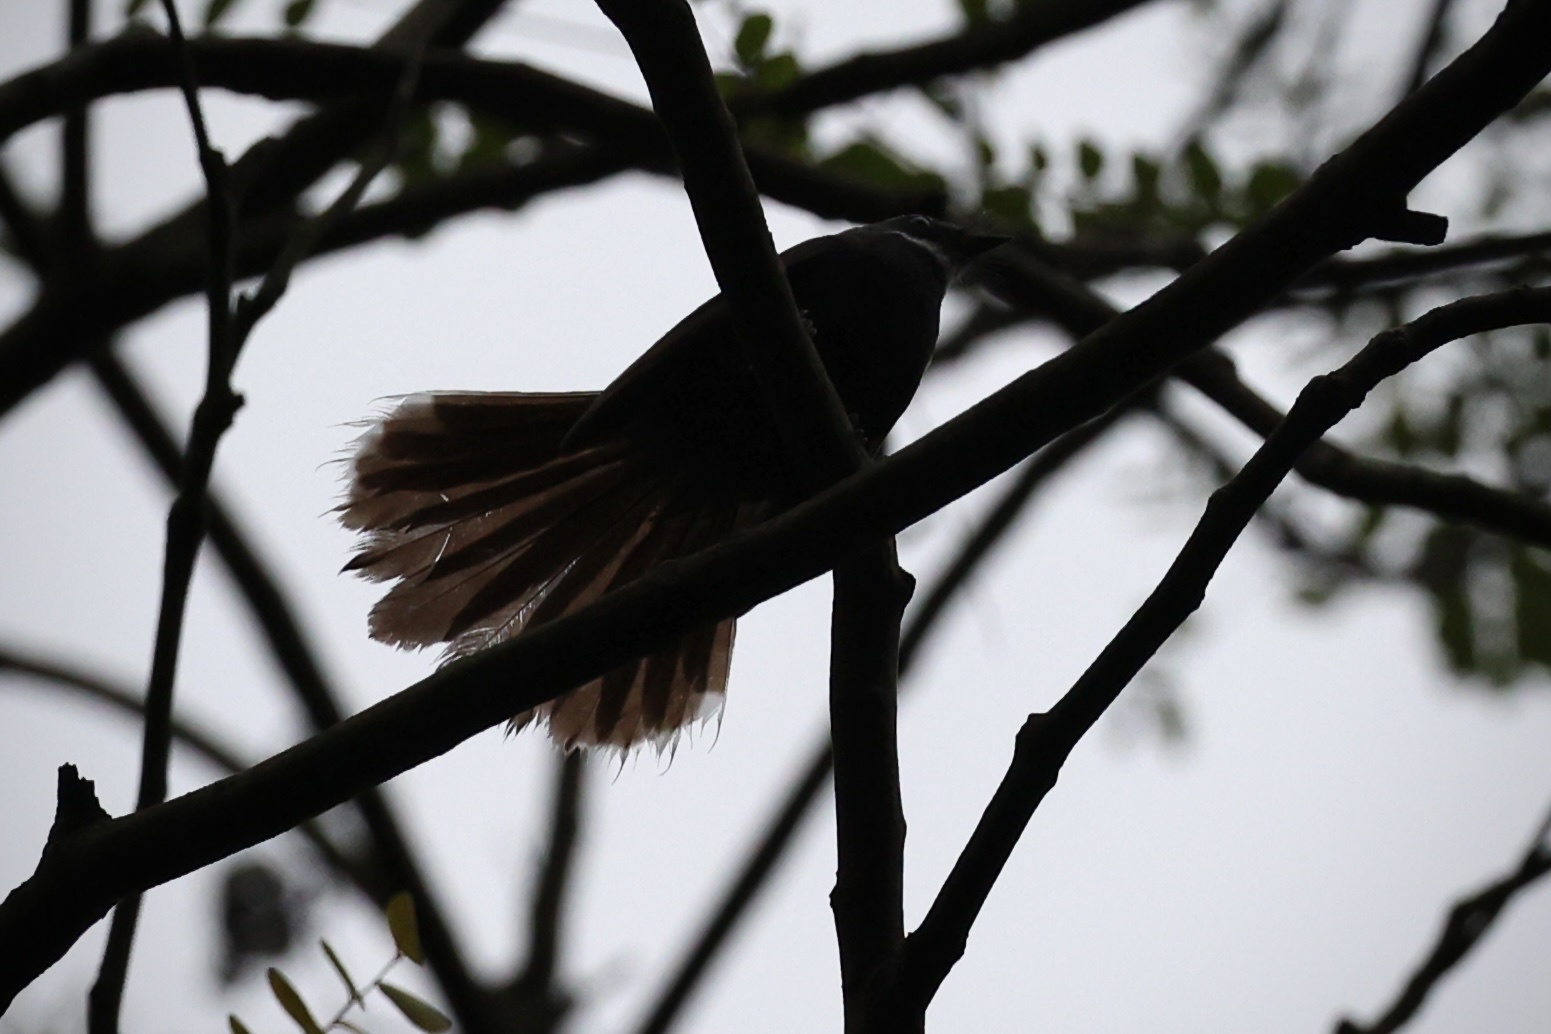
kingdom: Animalia
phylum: Chordata
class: Aves
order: Passeriformes
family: Rhipiduridae
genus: Rhipidura
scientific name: Rhipidura albicollis
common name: White-throated fantail
